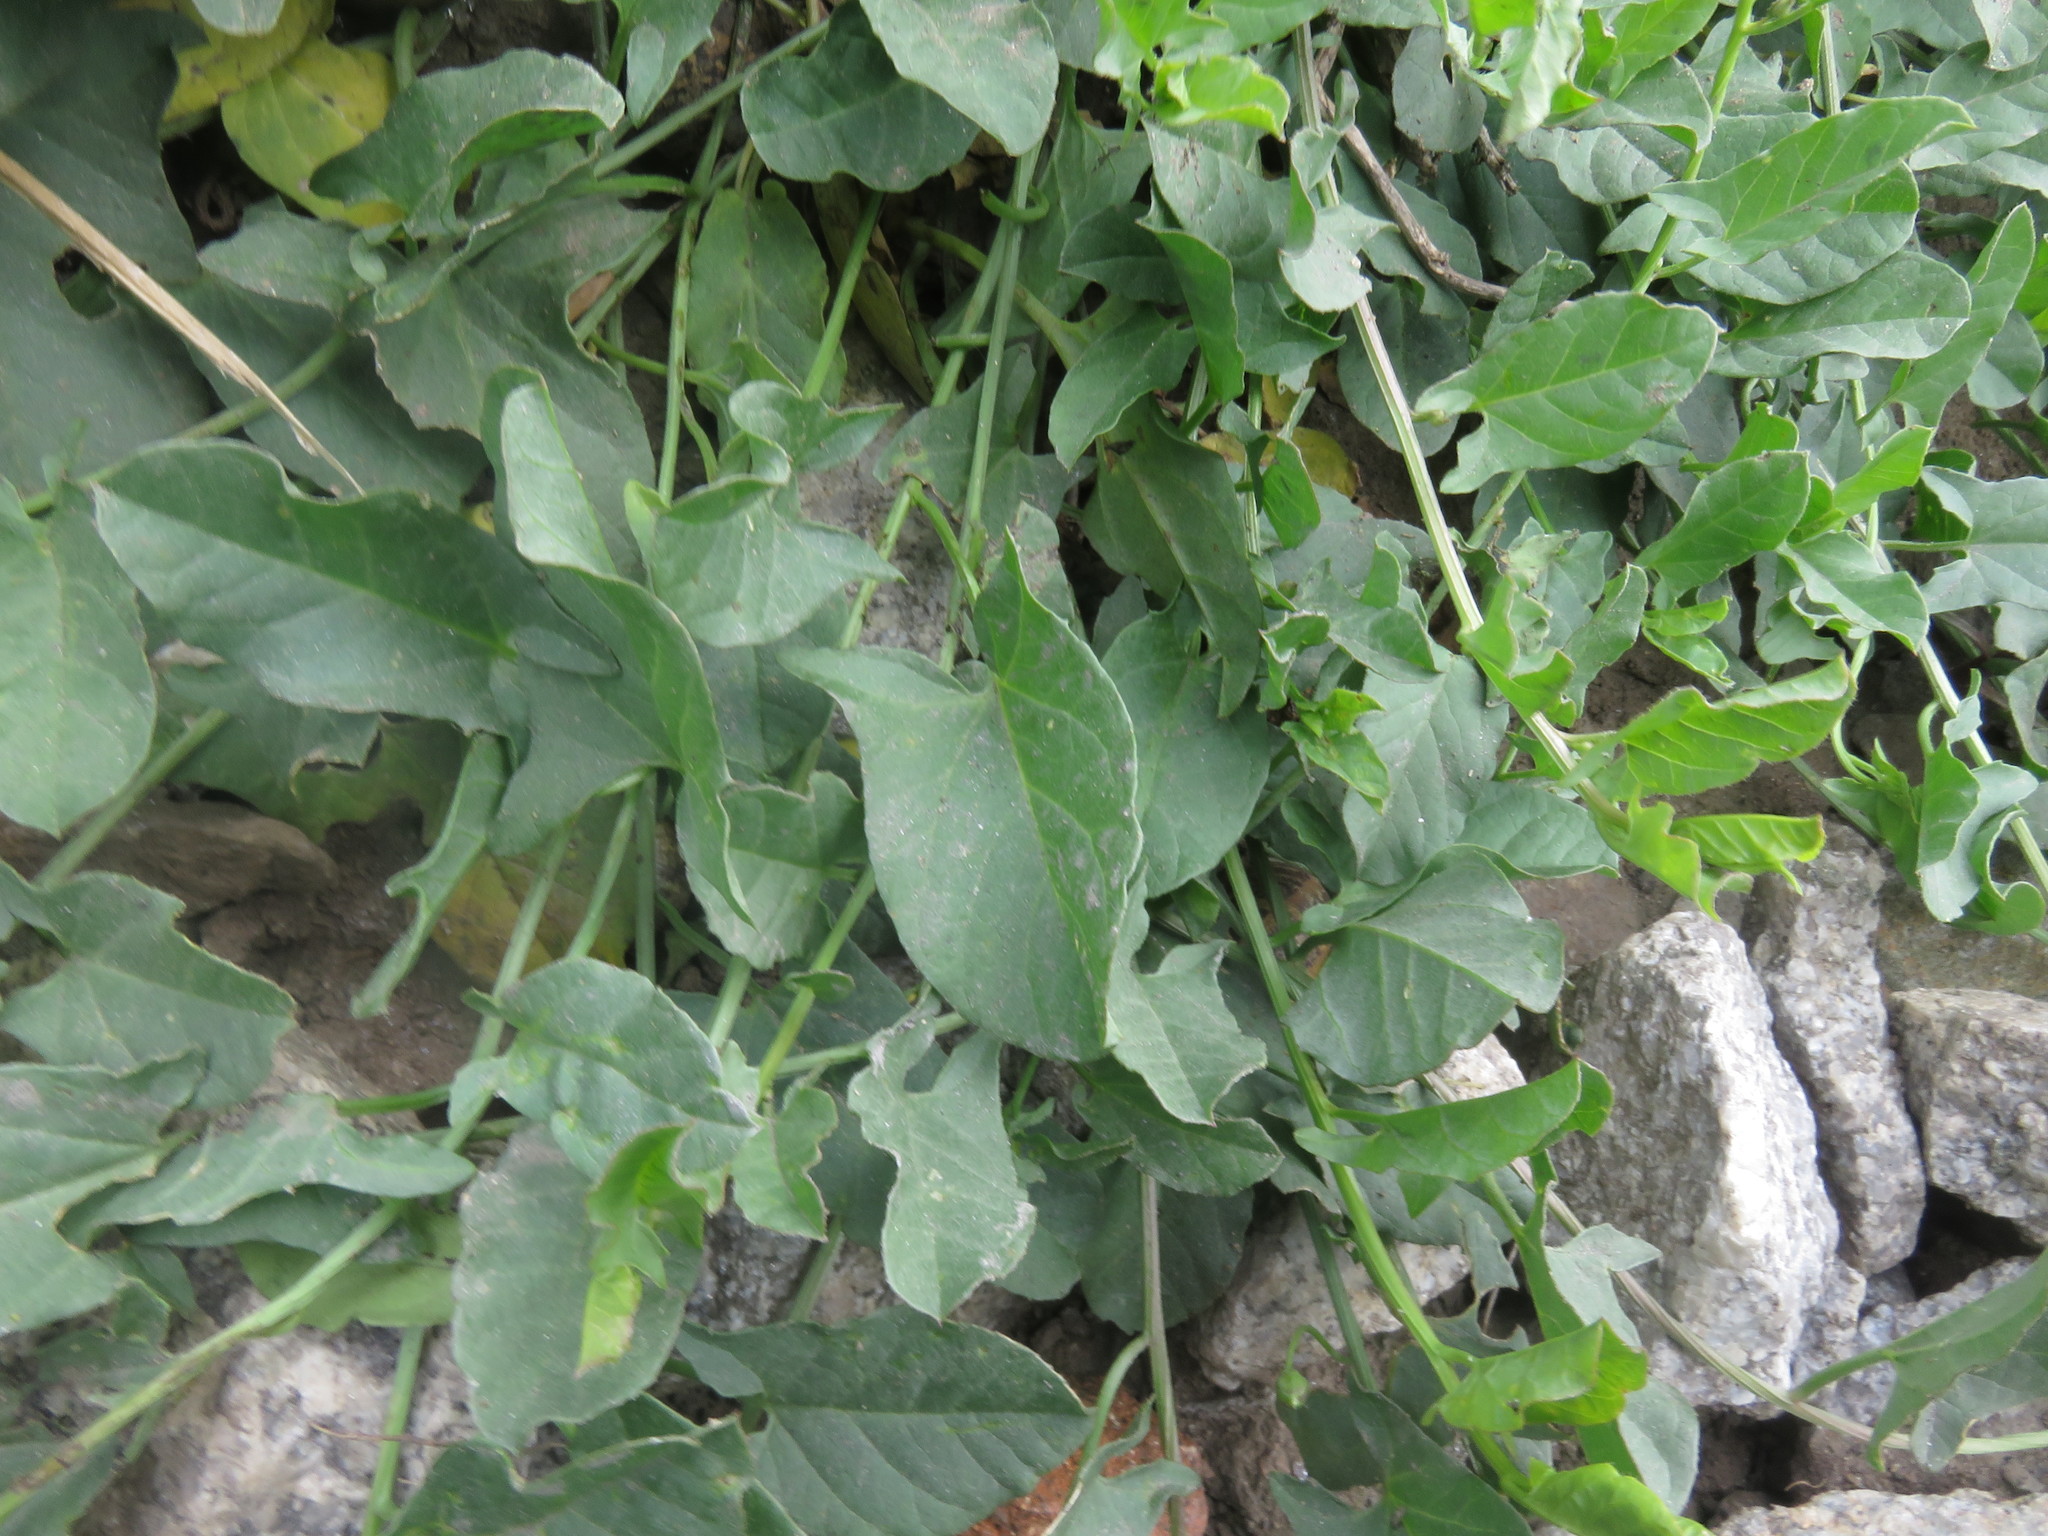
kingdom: Plantae
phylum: Tracheophyta
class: Magnoliopsida
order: Solanales
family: Convolvulaceae
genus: Convolvulus
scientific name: Convolvulus arvensis
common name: Field bindweed
